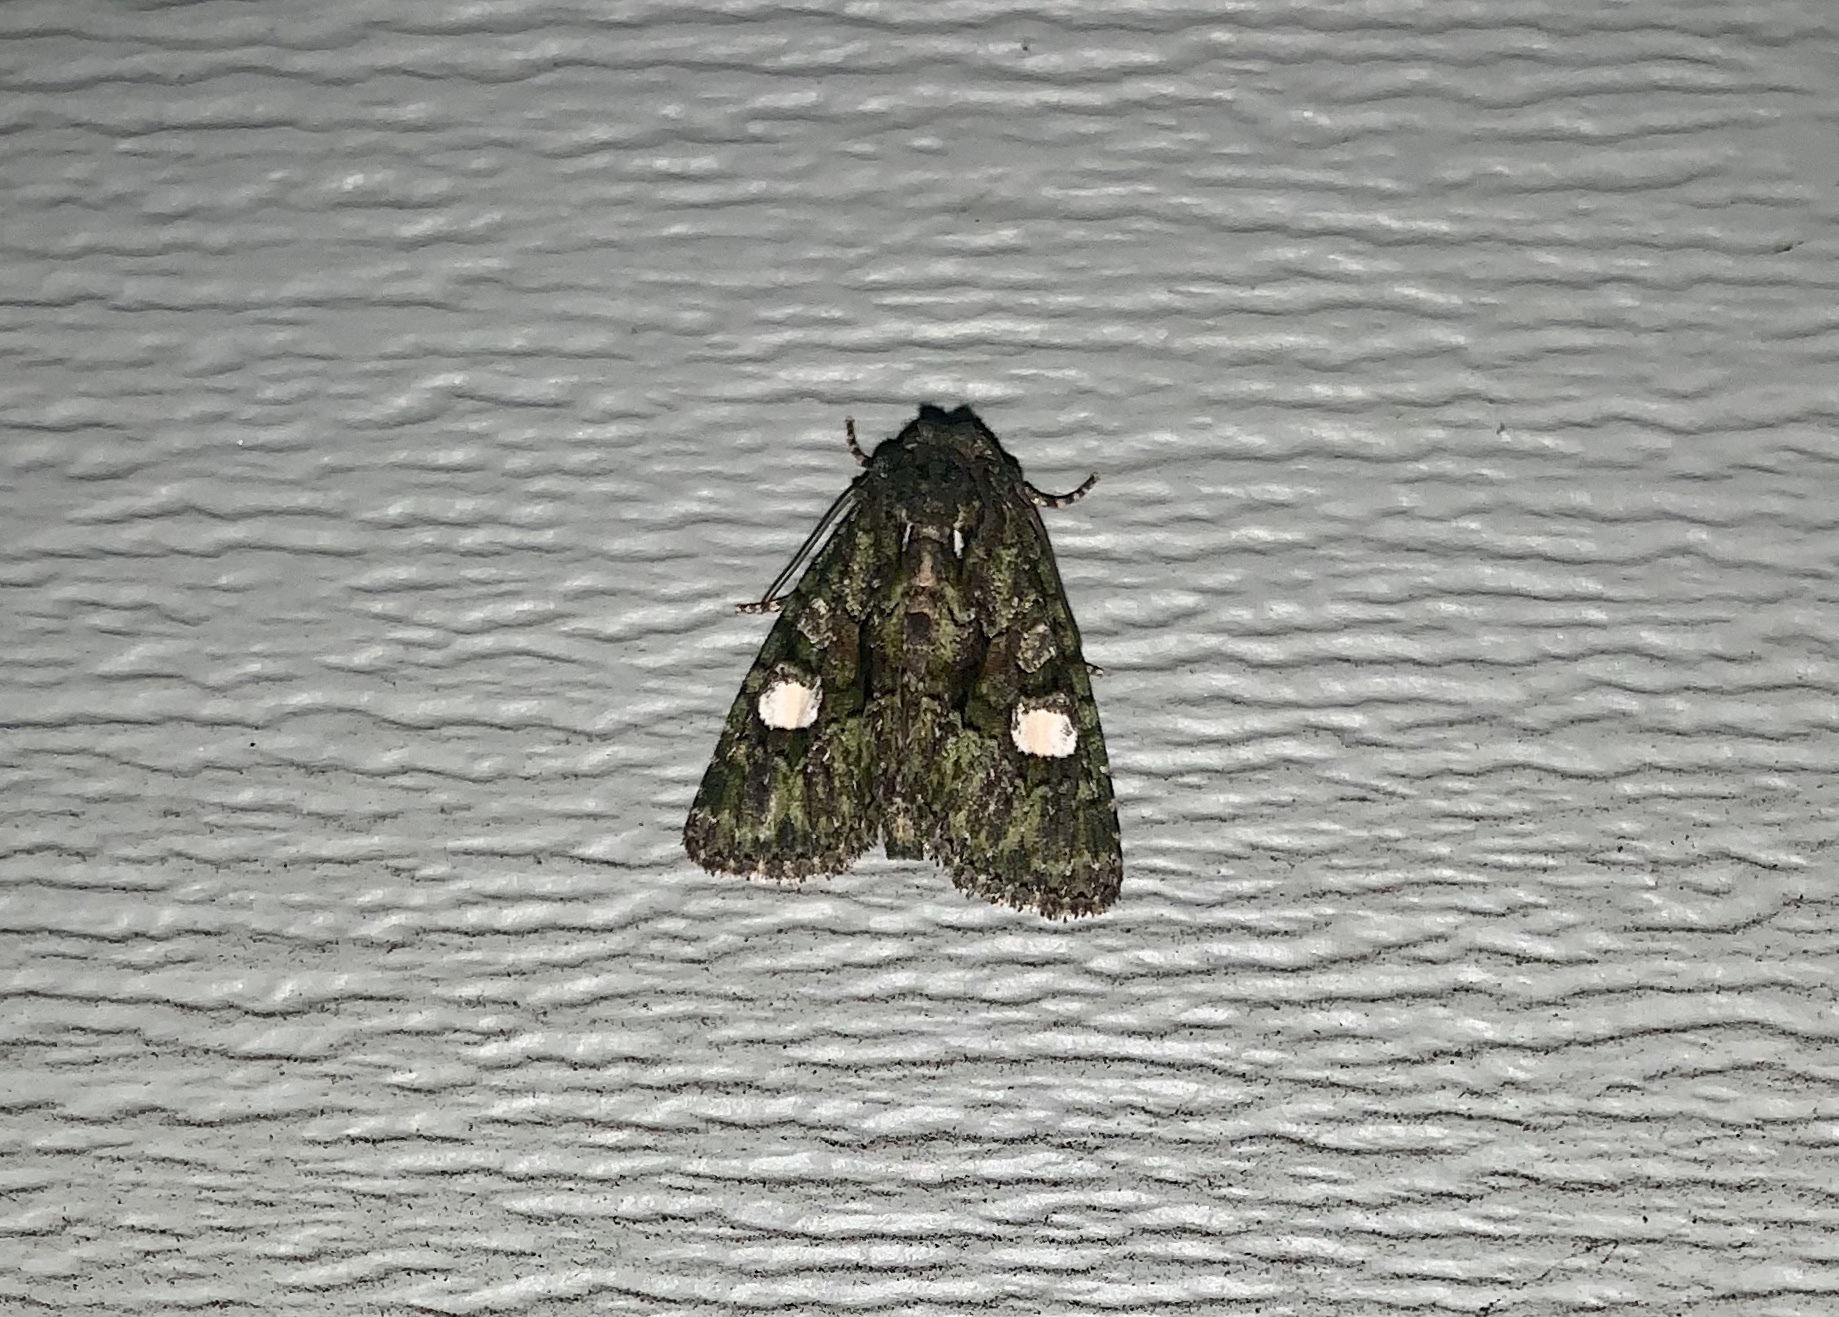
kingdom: Animalia
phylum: Arthropoda
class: Insecta
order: Lepidoptera
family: Noctuidae
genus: Phosphila
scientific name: Phosphila miselioides
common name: Spotted phosphila moth
